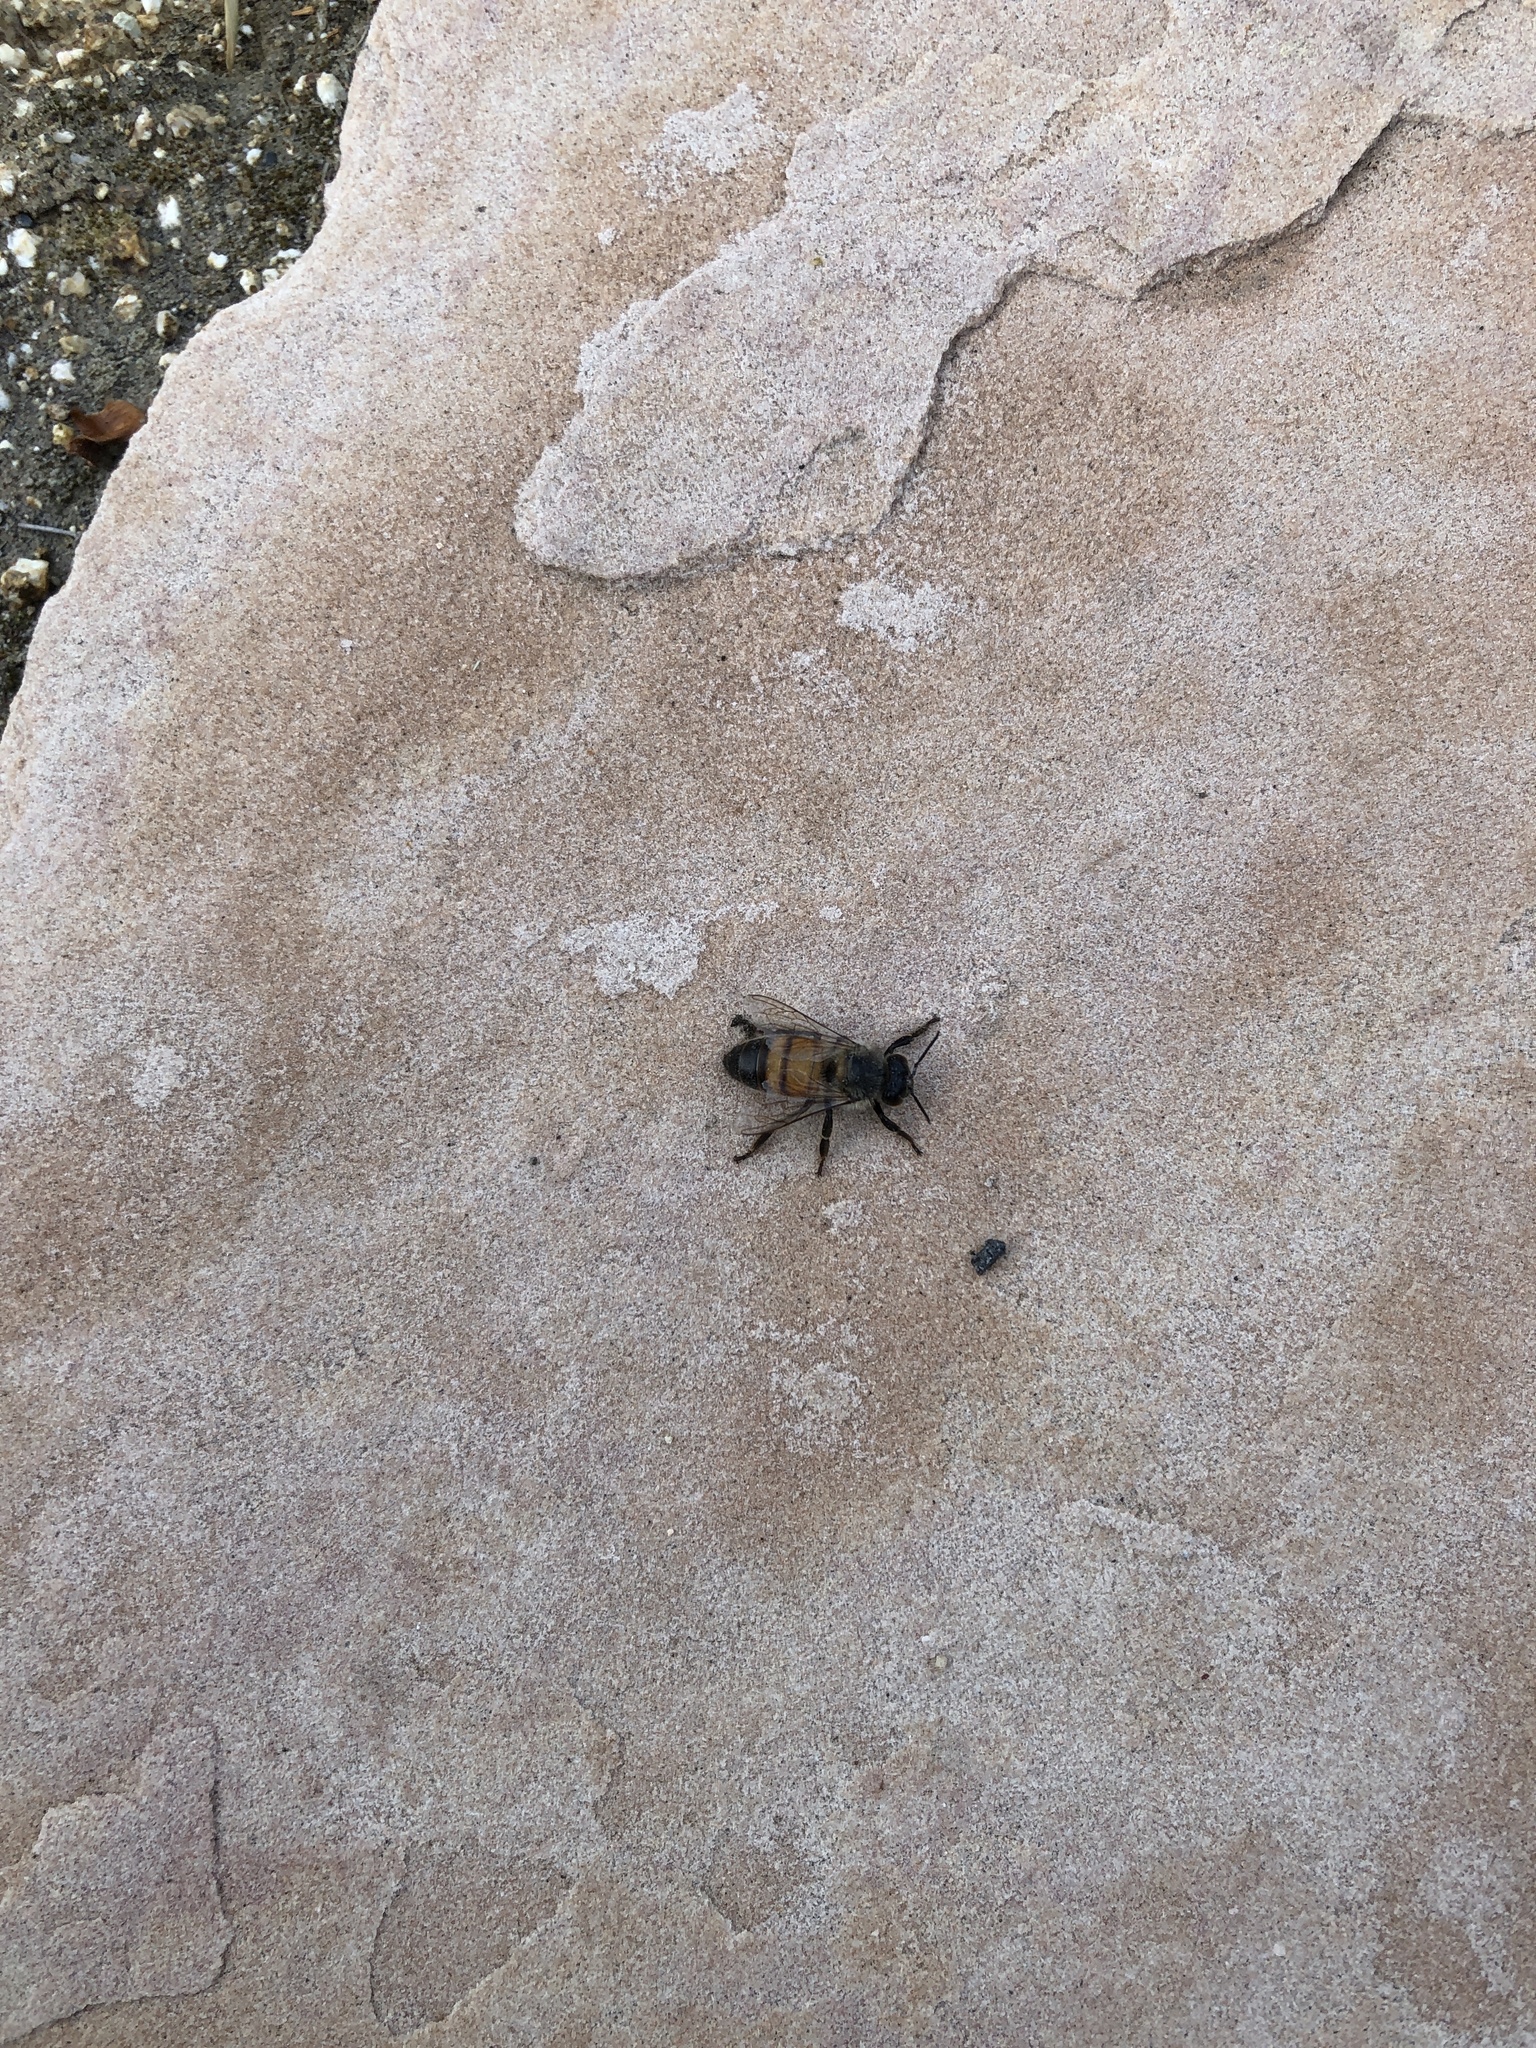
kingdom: Animalia
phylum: Arthropoda
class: Insecta
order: Hymenoptera
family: Apidae
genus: Apis
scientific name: Apis mellifera
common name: Honey bee
